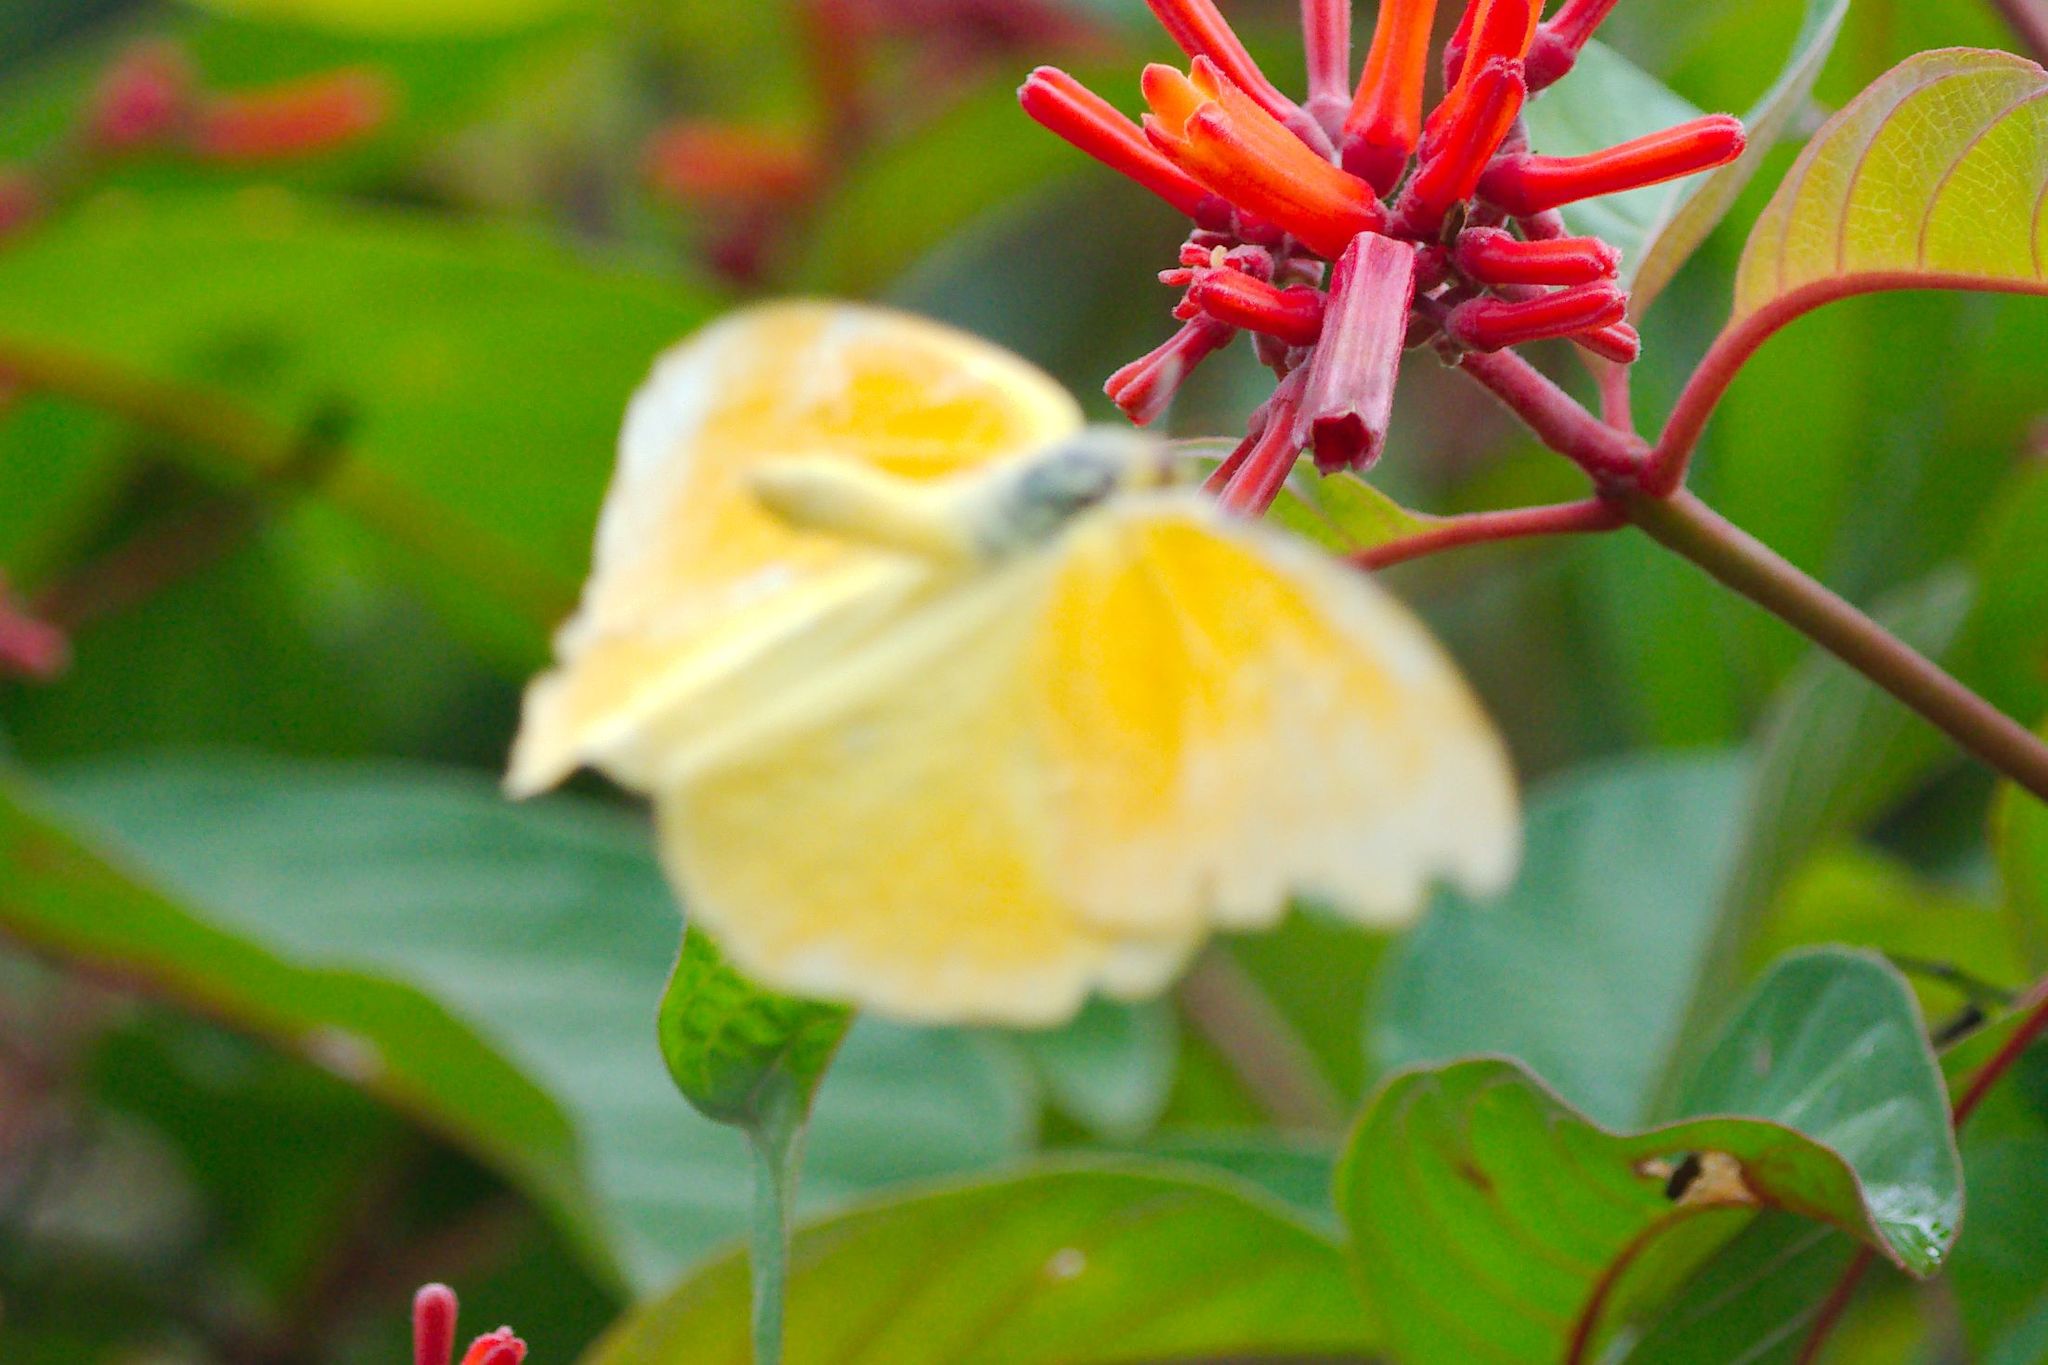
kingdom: Animalia
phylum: Arthropoda
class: Insecta
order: Lepidoptera
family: Pieridae
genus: Phoebis
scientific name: Phoebis agarithe
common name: Large orange sulphur
